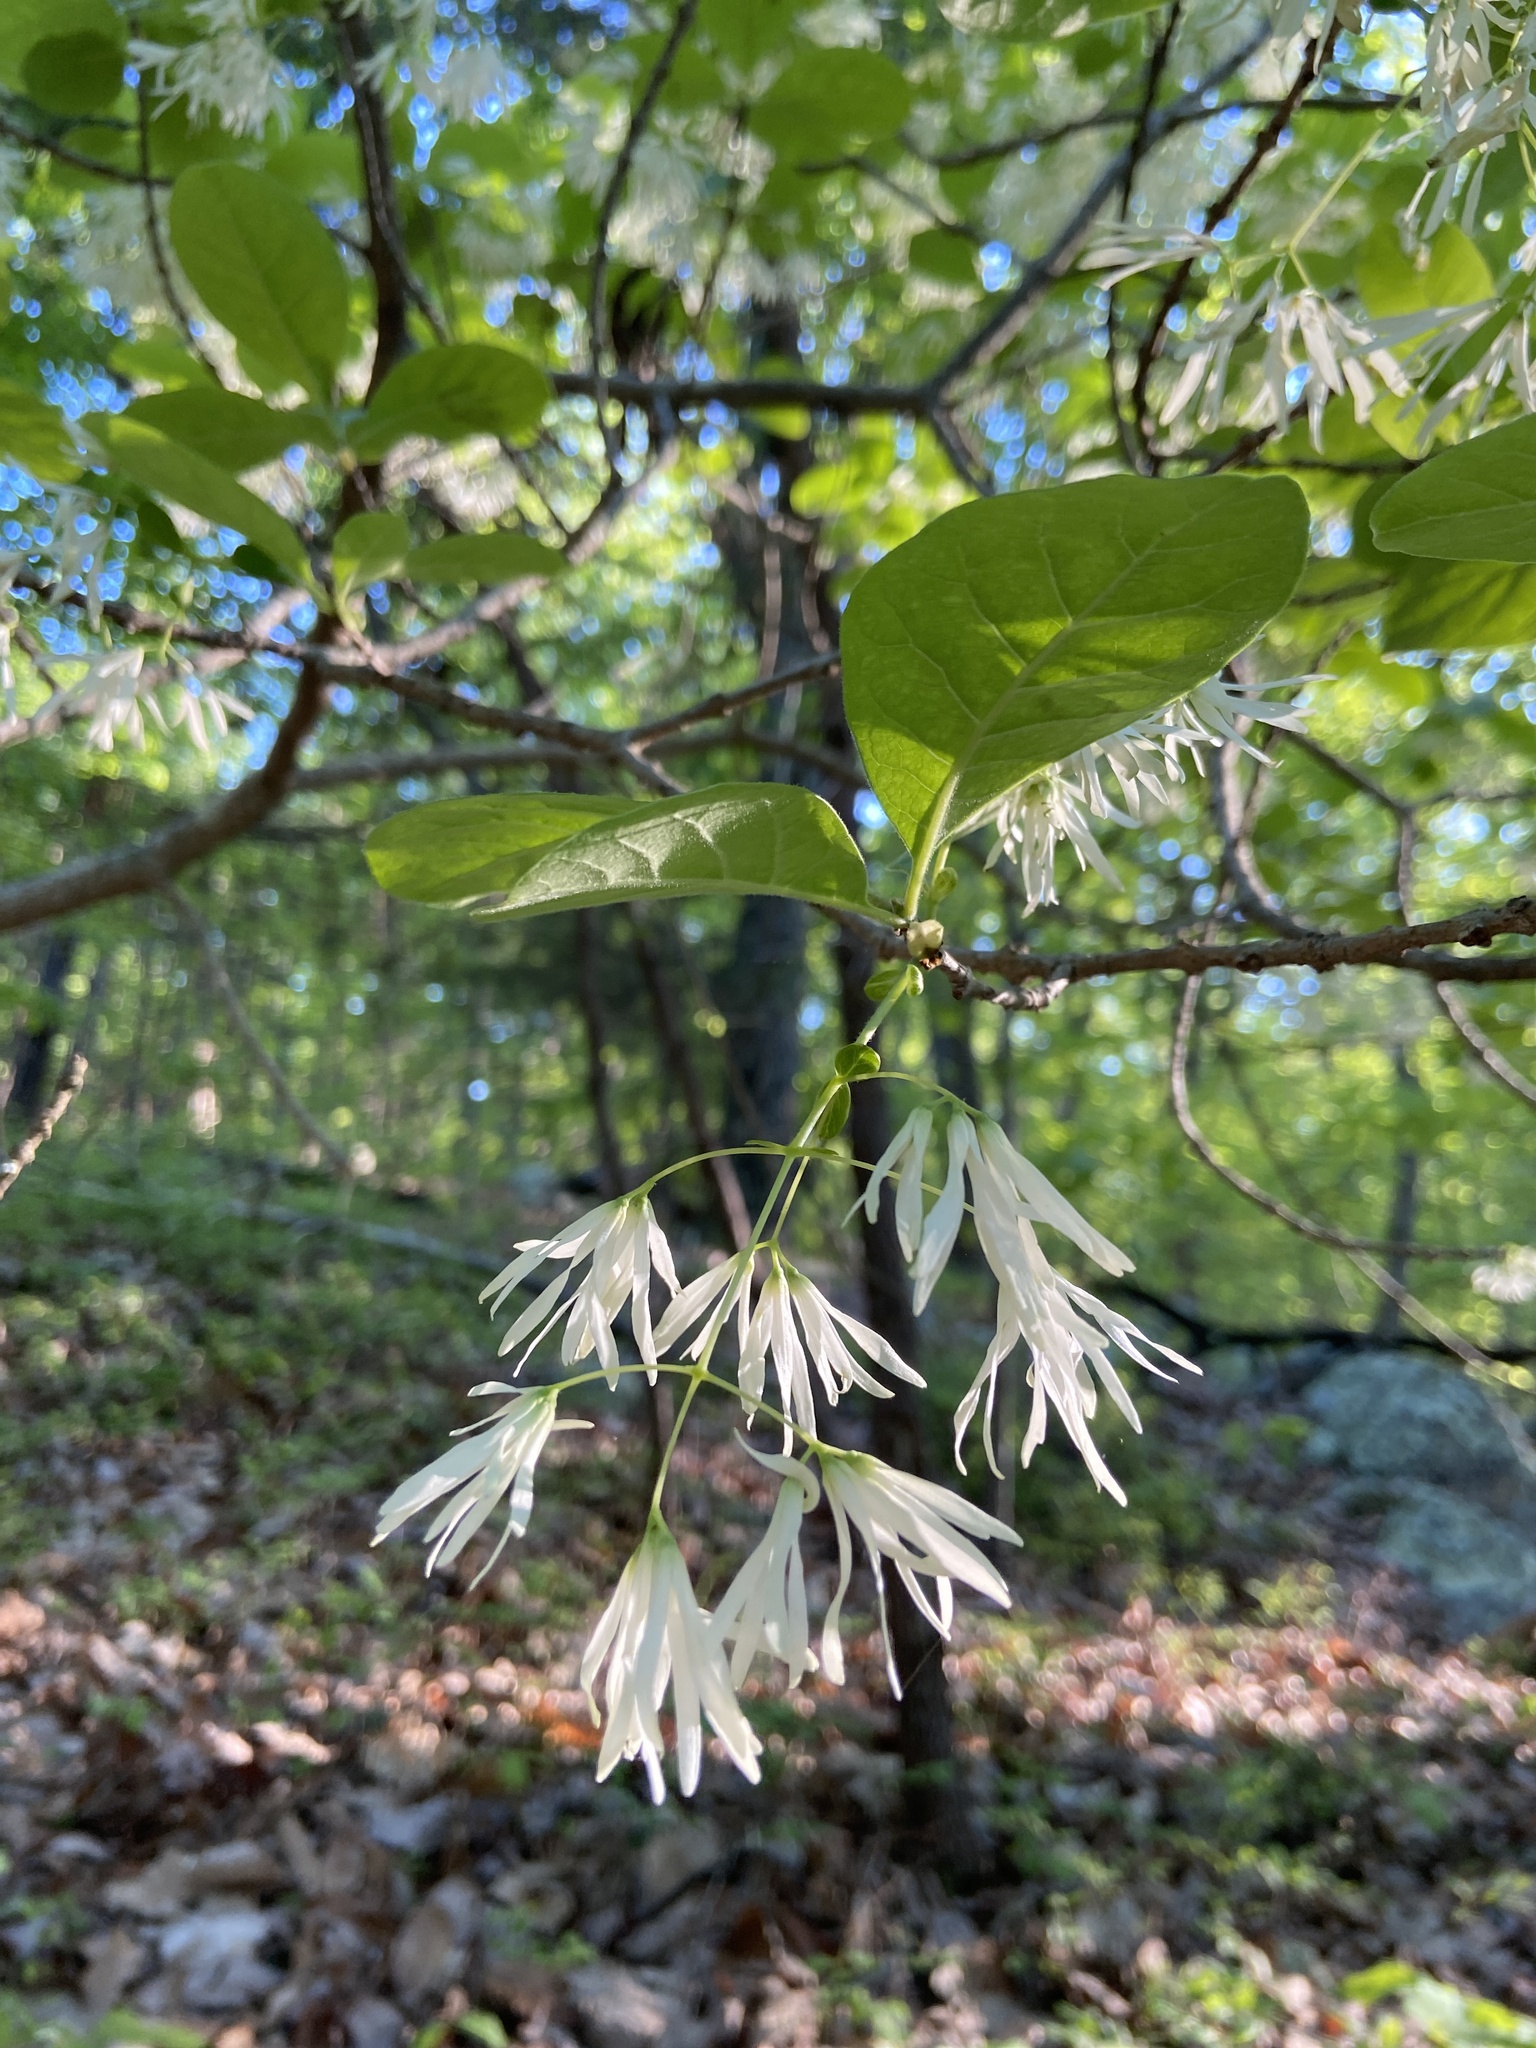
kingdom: Plantae
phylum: Tracheophyta
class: Magnoliopsida
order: Lamiales
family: Oleaceae
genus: Chionanthus
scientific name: Chionanthus virginicus
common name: American fringetree
